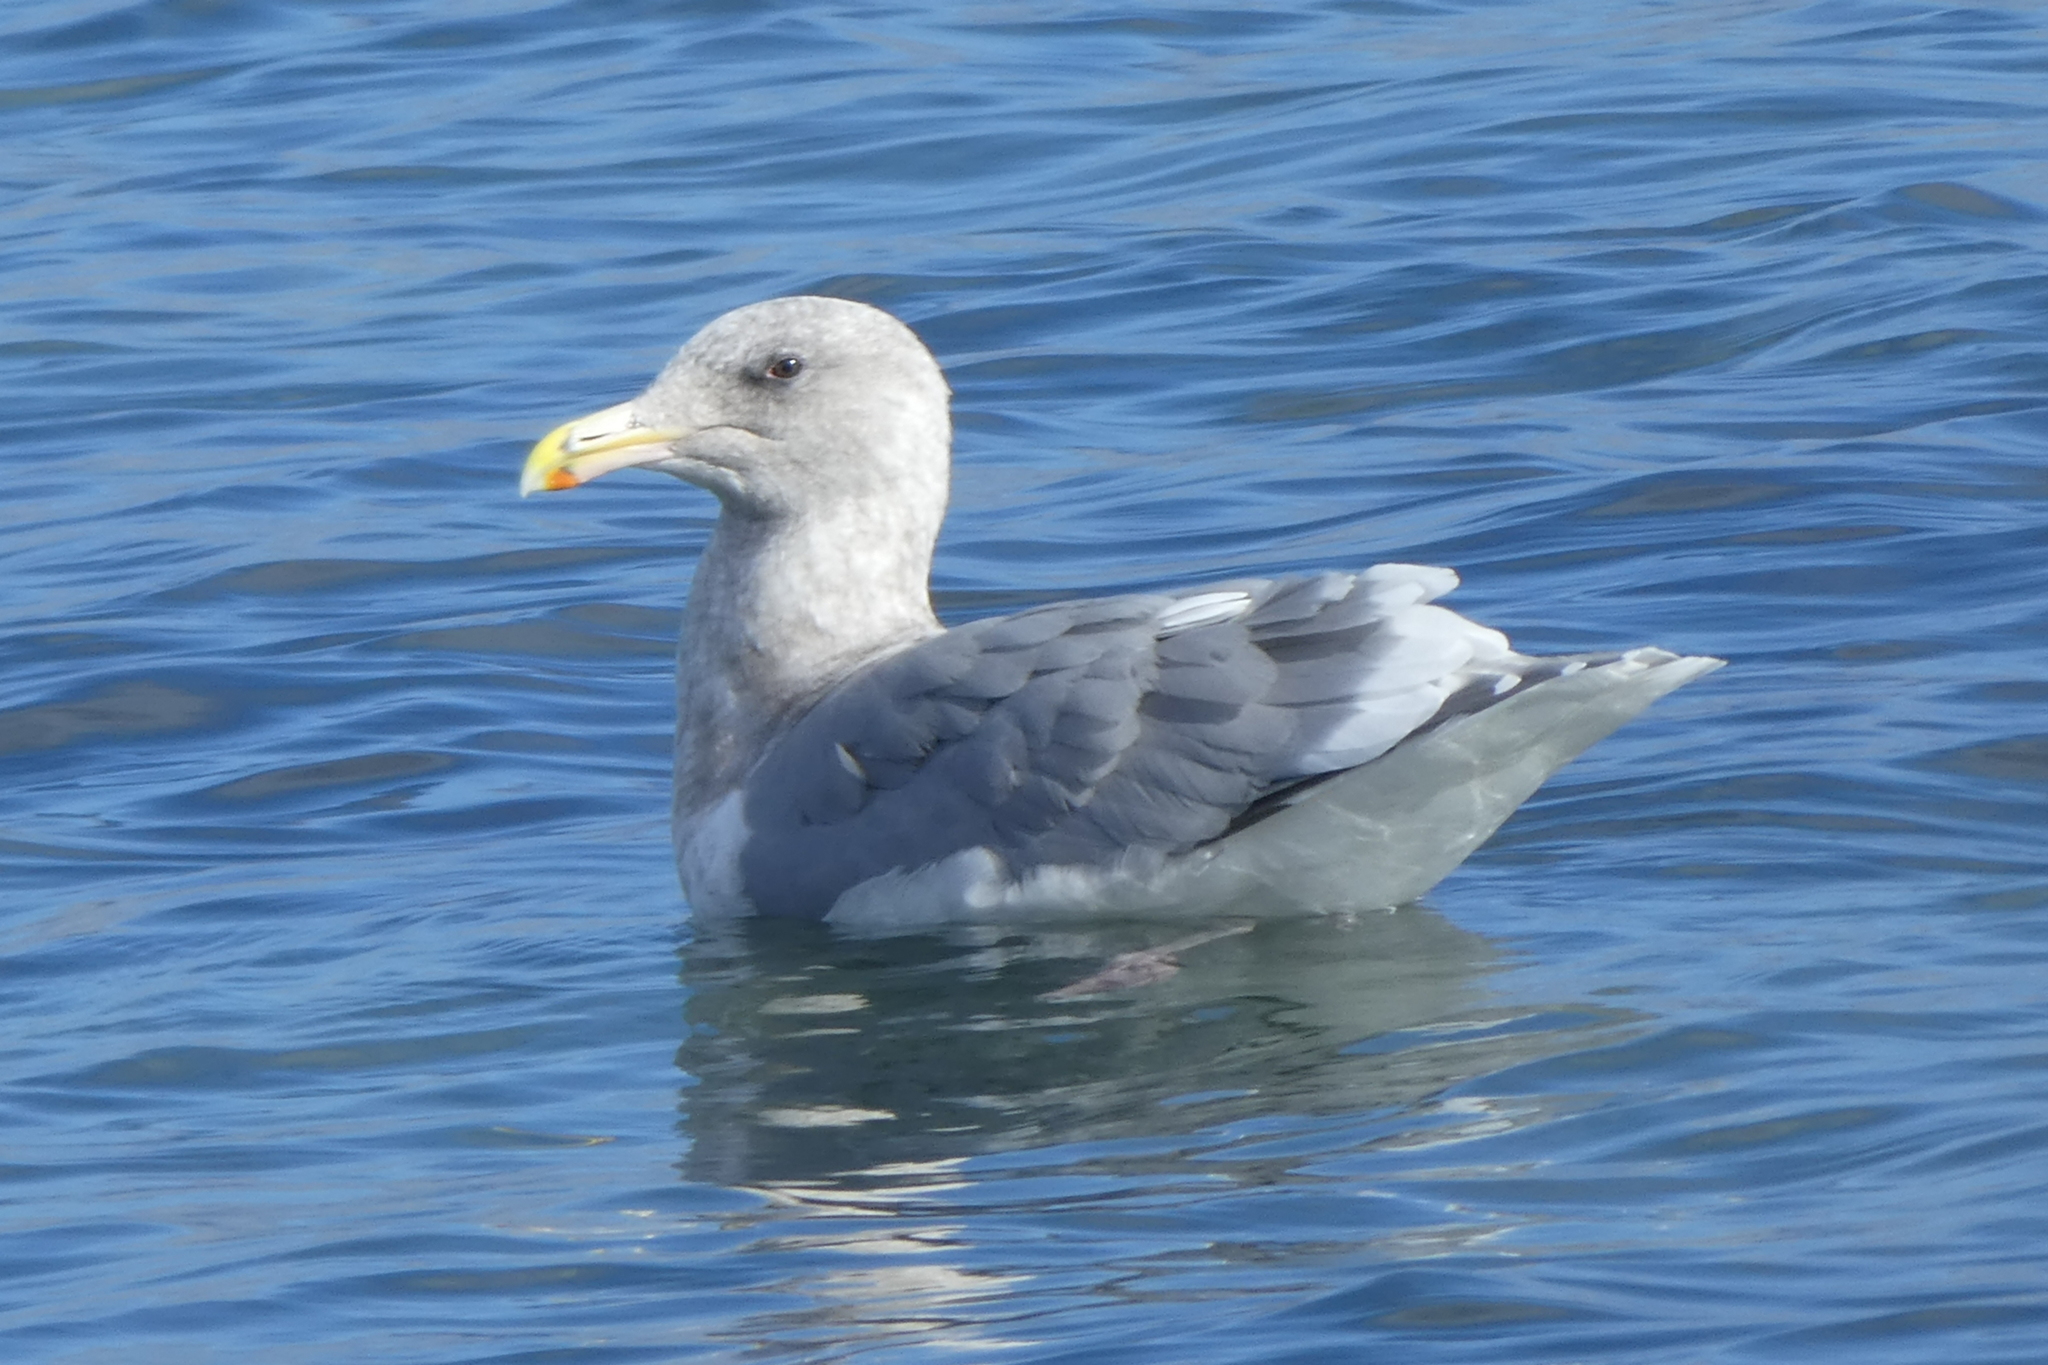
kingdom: Animalia
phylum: Chordata
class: Aves
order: Charadriiformes
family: Laridae
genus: Larus
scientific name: Larus
